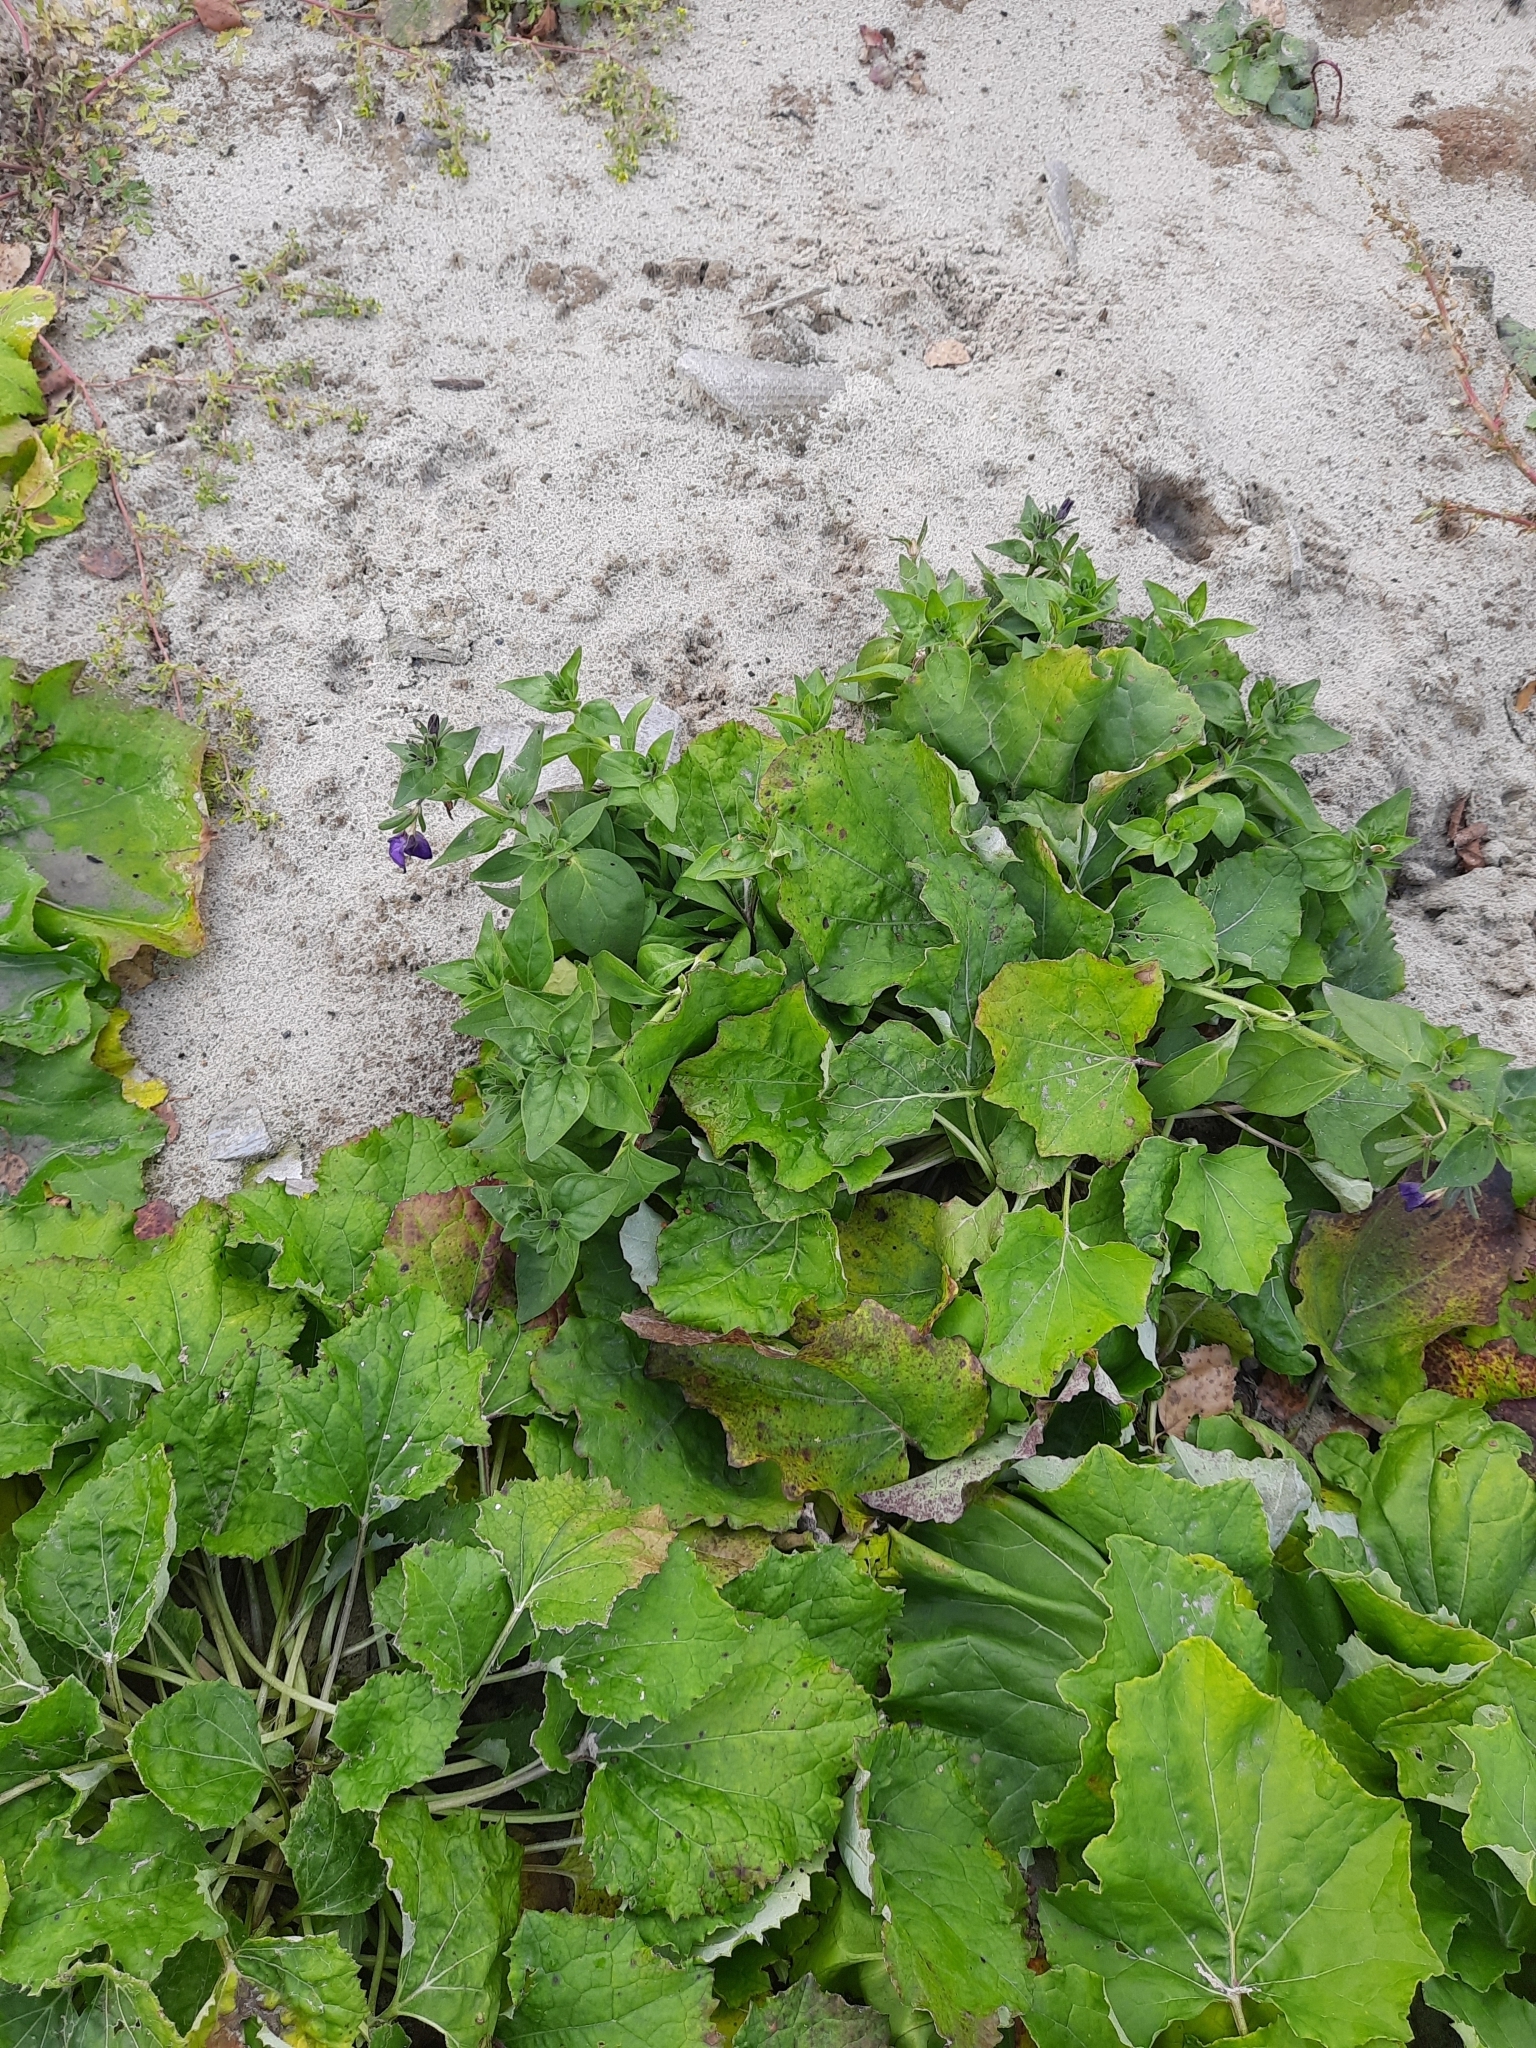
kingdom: Plantae
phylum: Tracheophyta
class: Magnoliopsida
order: Asterales
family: Asteraceae
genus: Tussilago
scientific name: Tussilago farfara
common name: Coltsfoot
